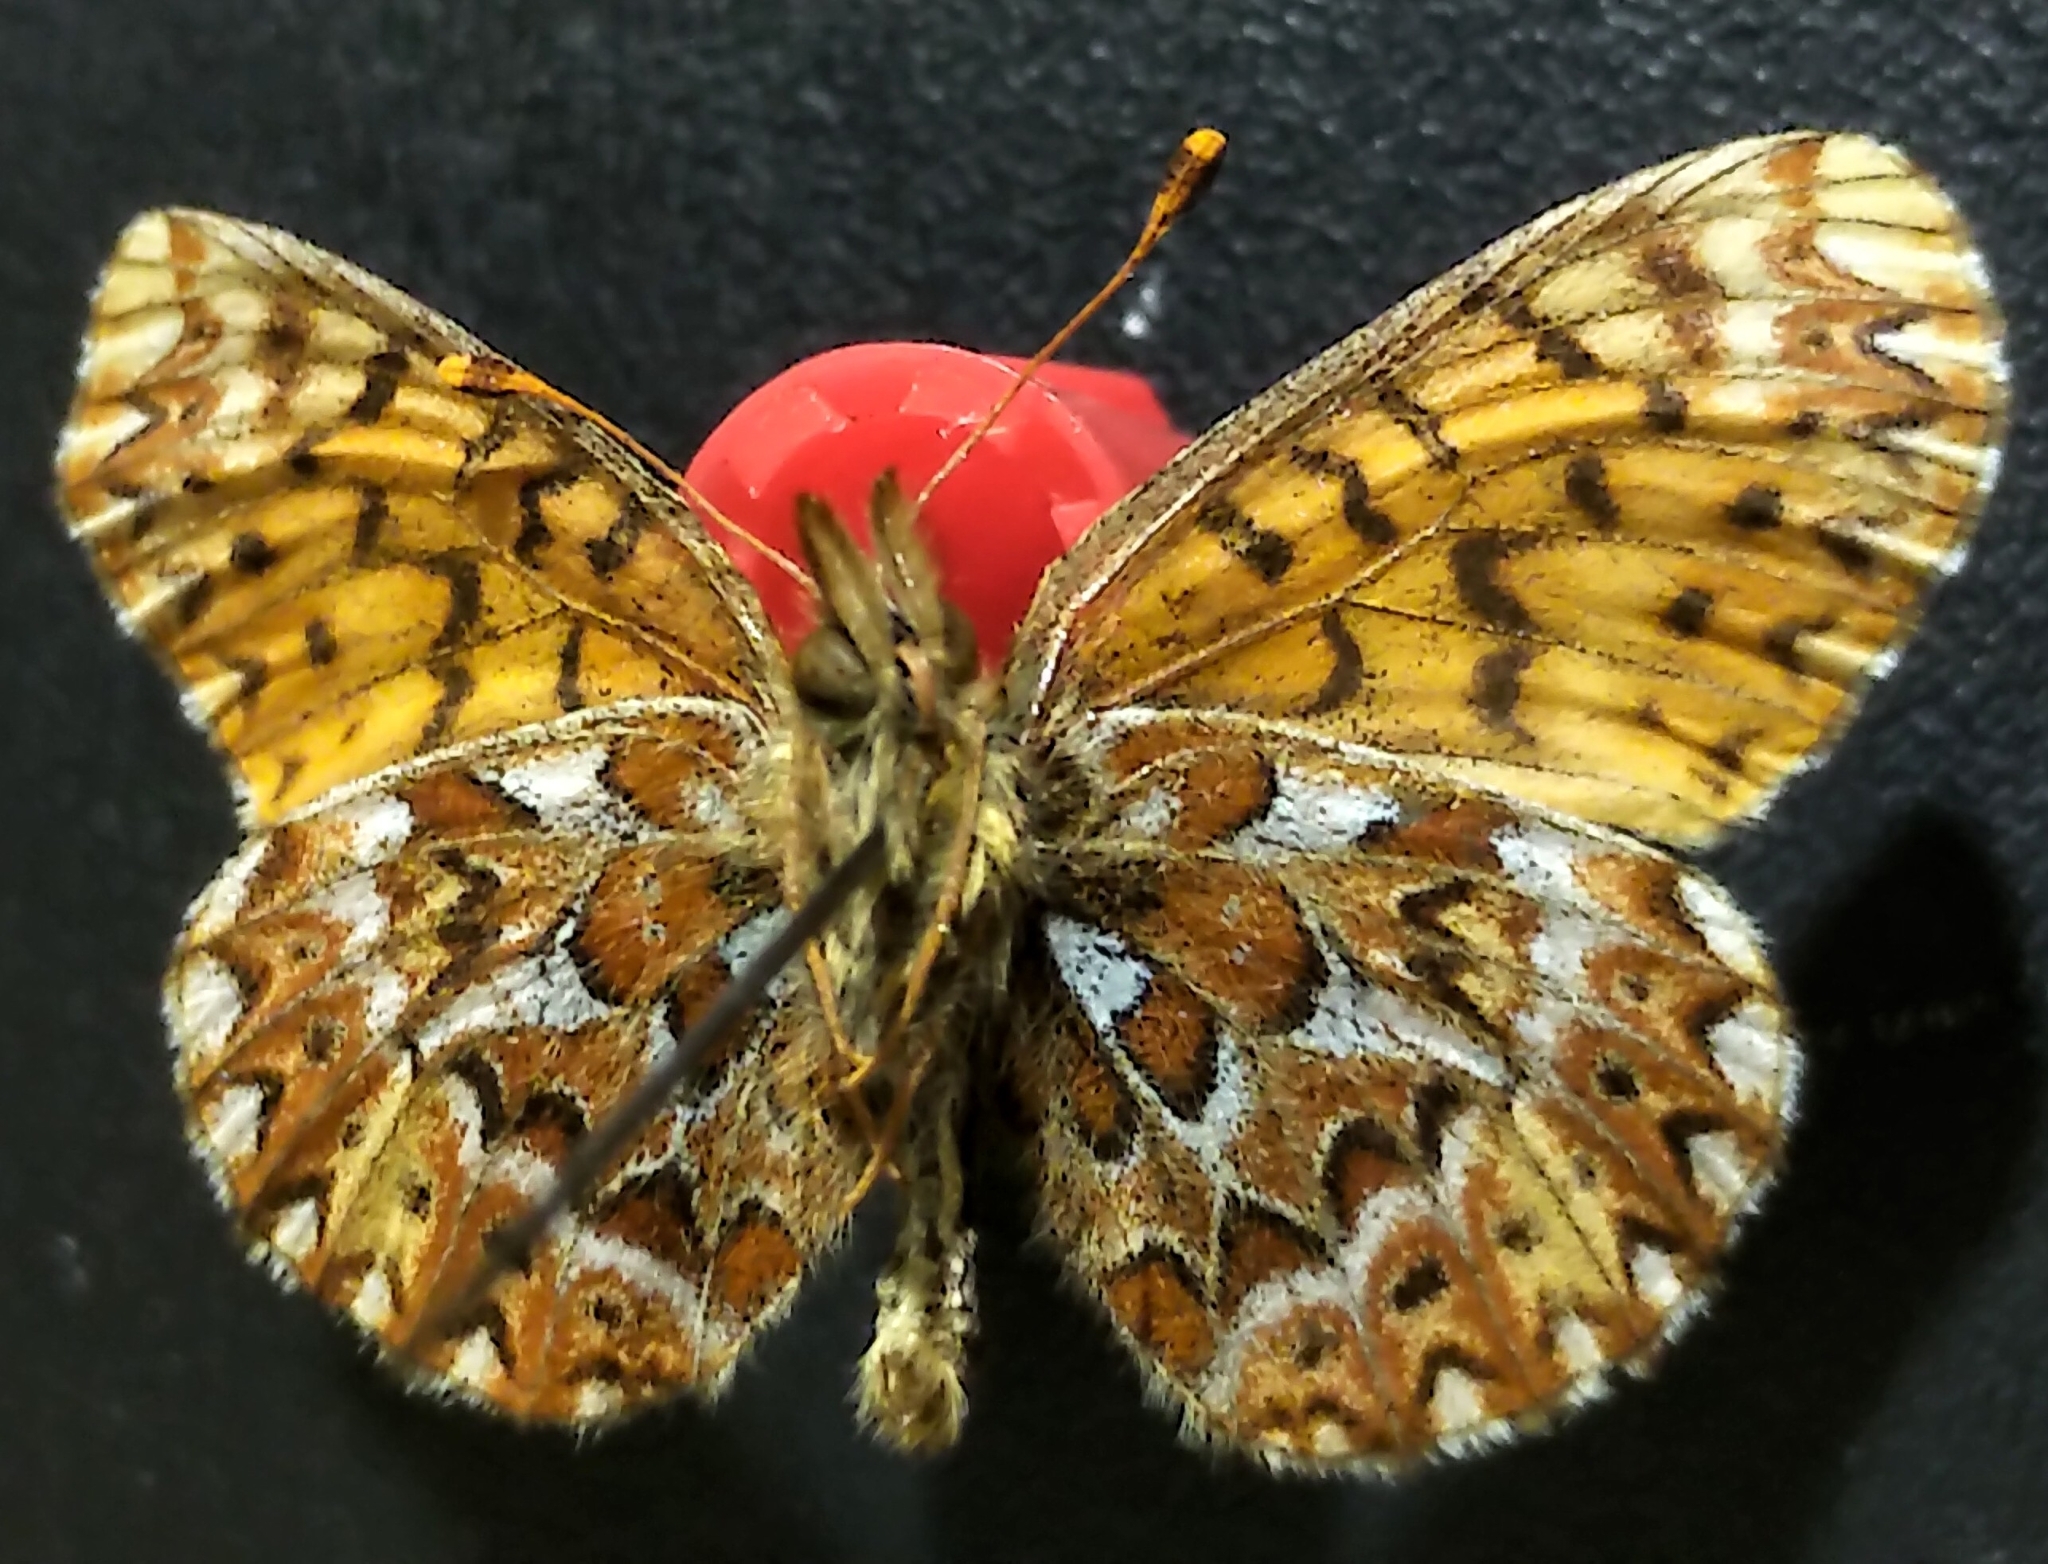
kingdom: Animalia
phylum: Arthropoda
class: Insecta
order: Lepidoptera
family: Nymphalidae
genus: Boloria
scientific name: Boloria freija
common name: Freija fritillary
